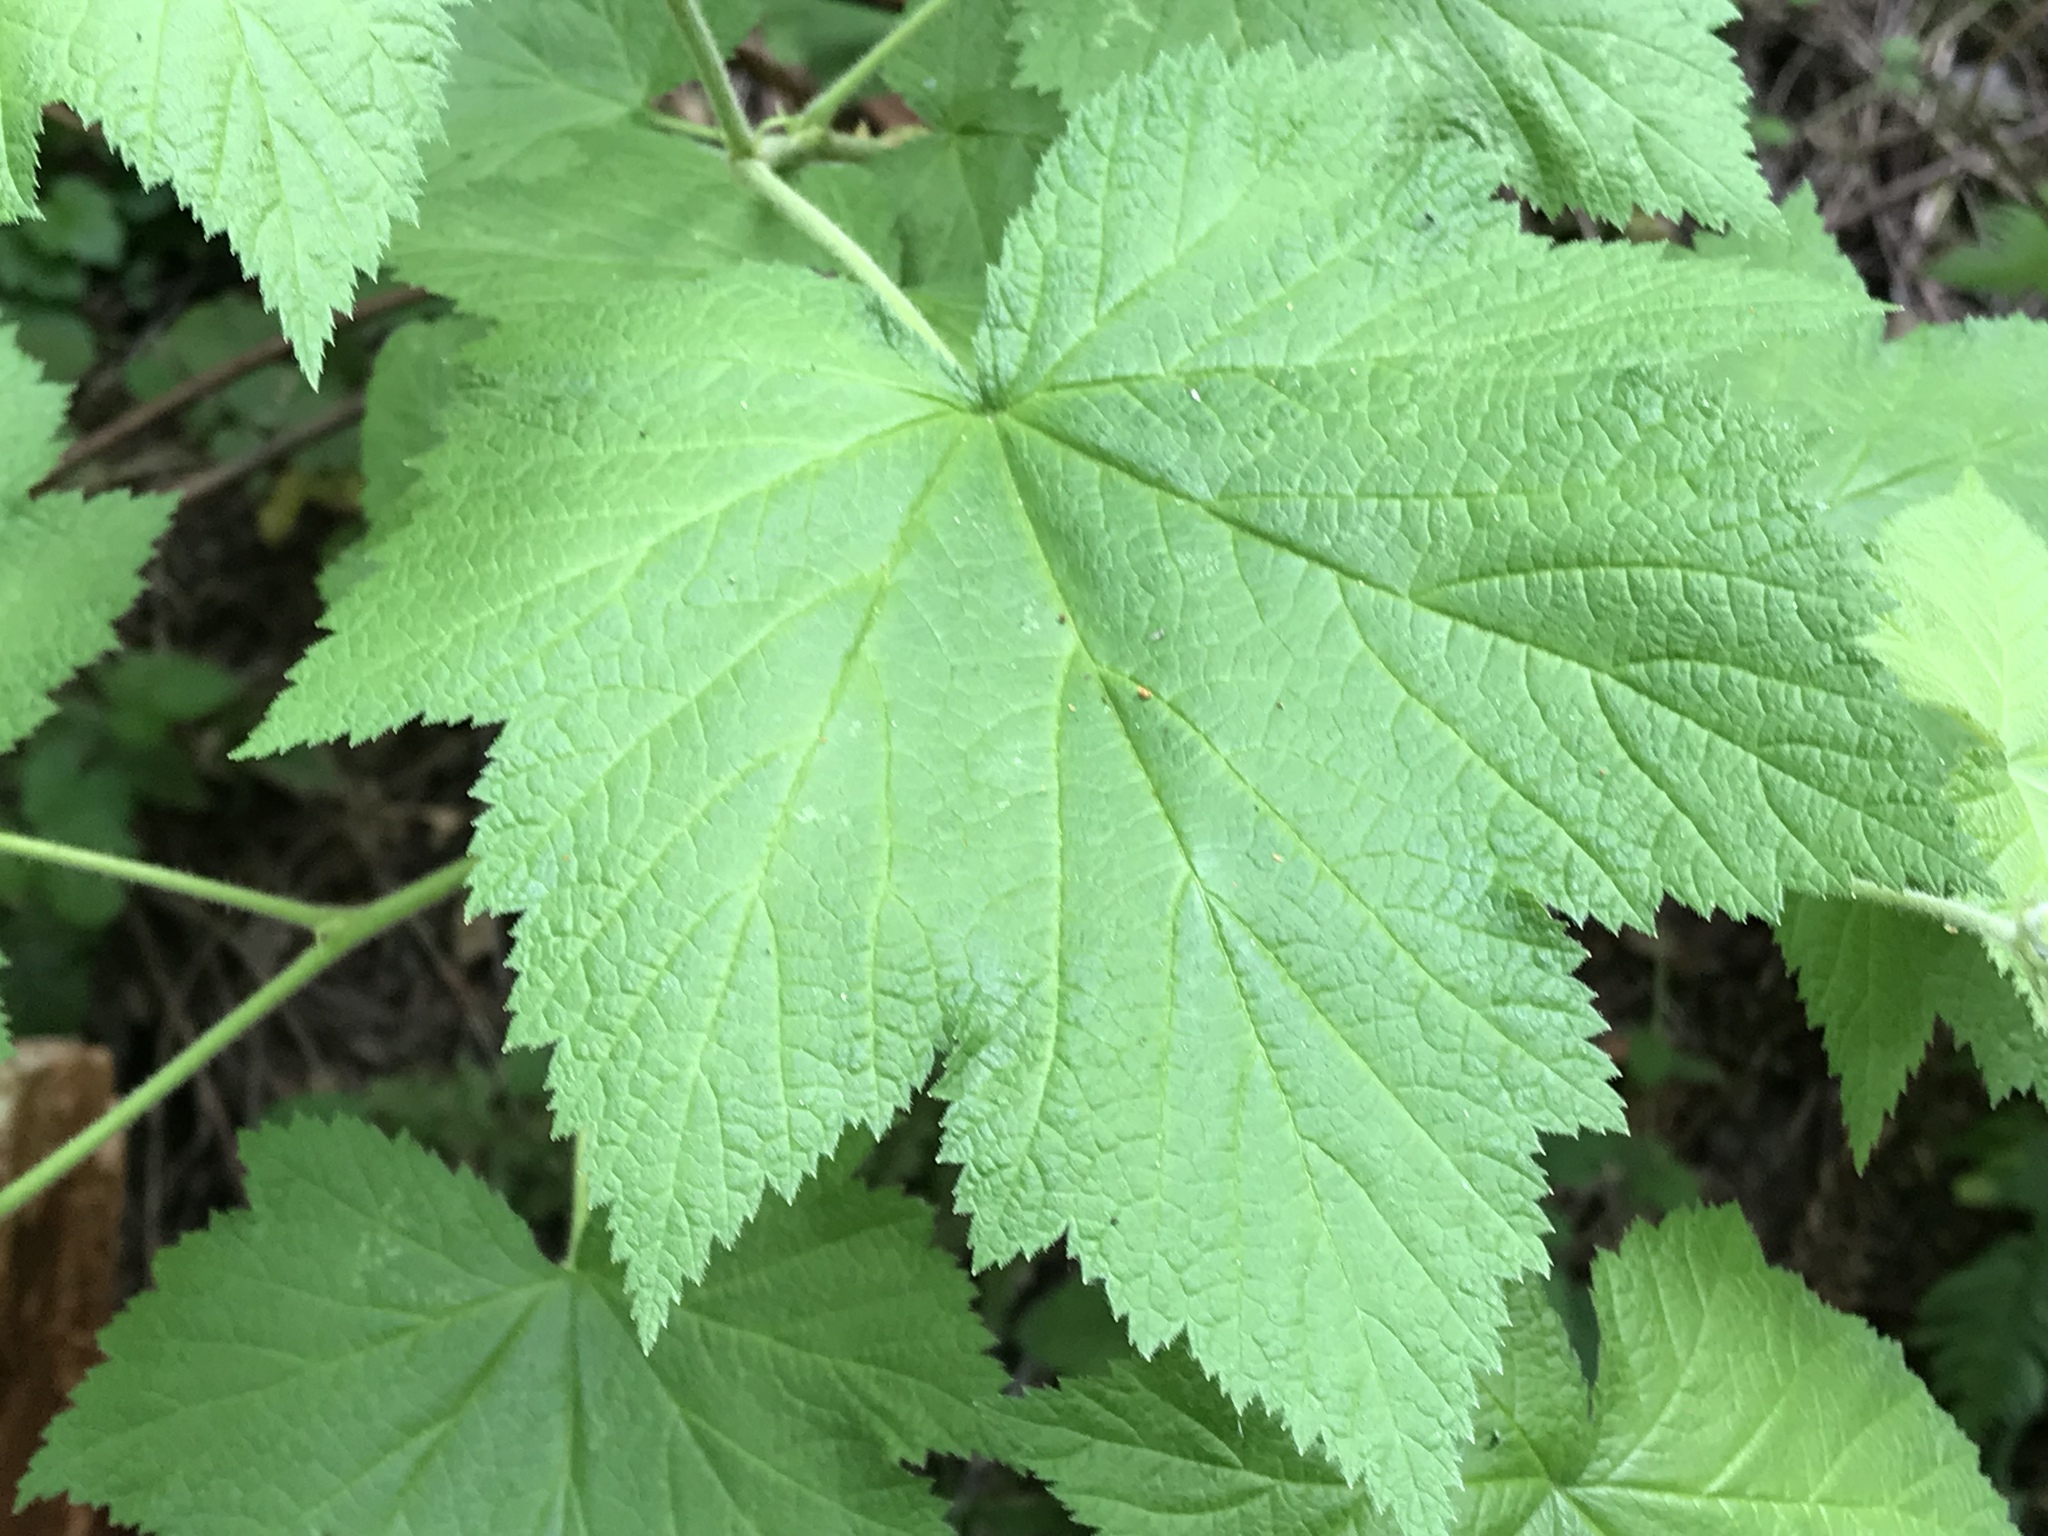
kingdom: Plantae
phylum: Tracheophyta
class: Magnoliopsida
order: Rosales
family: Rosaceae
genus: Rubus
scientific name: Rubus parviflorus
